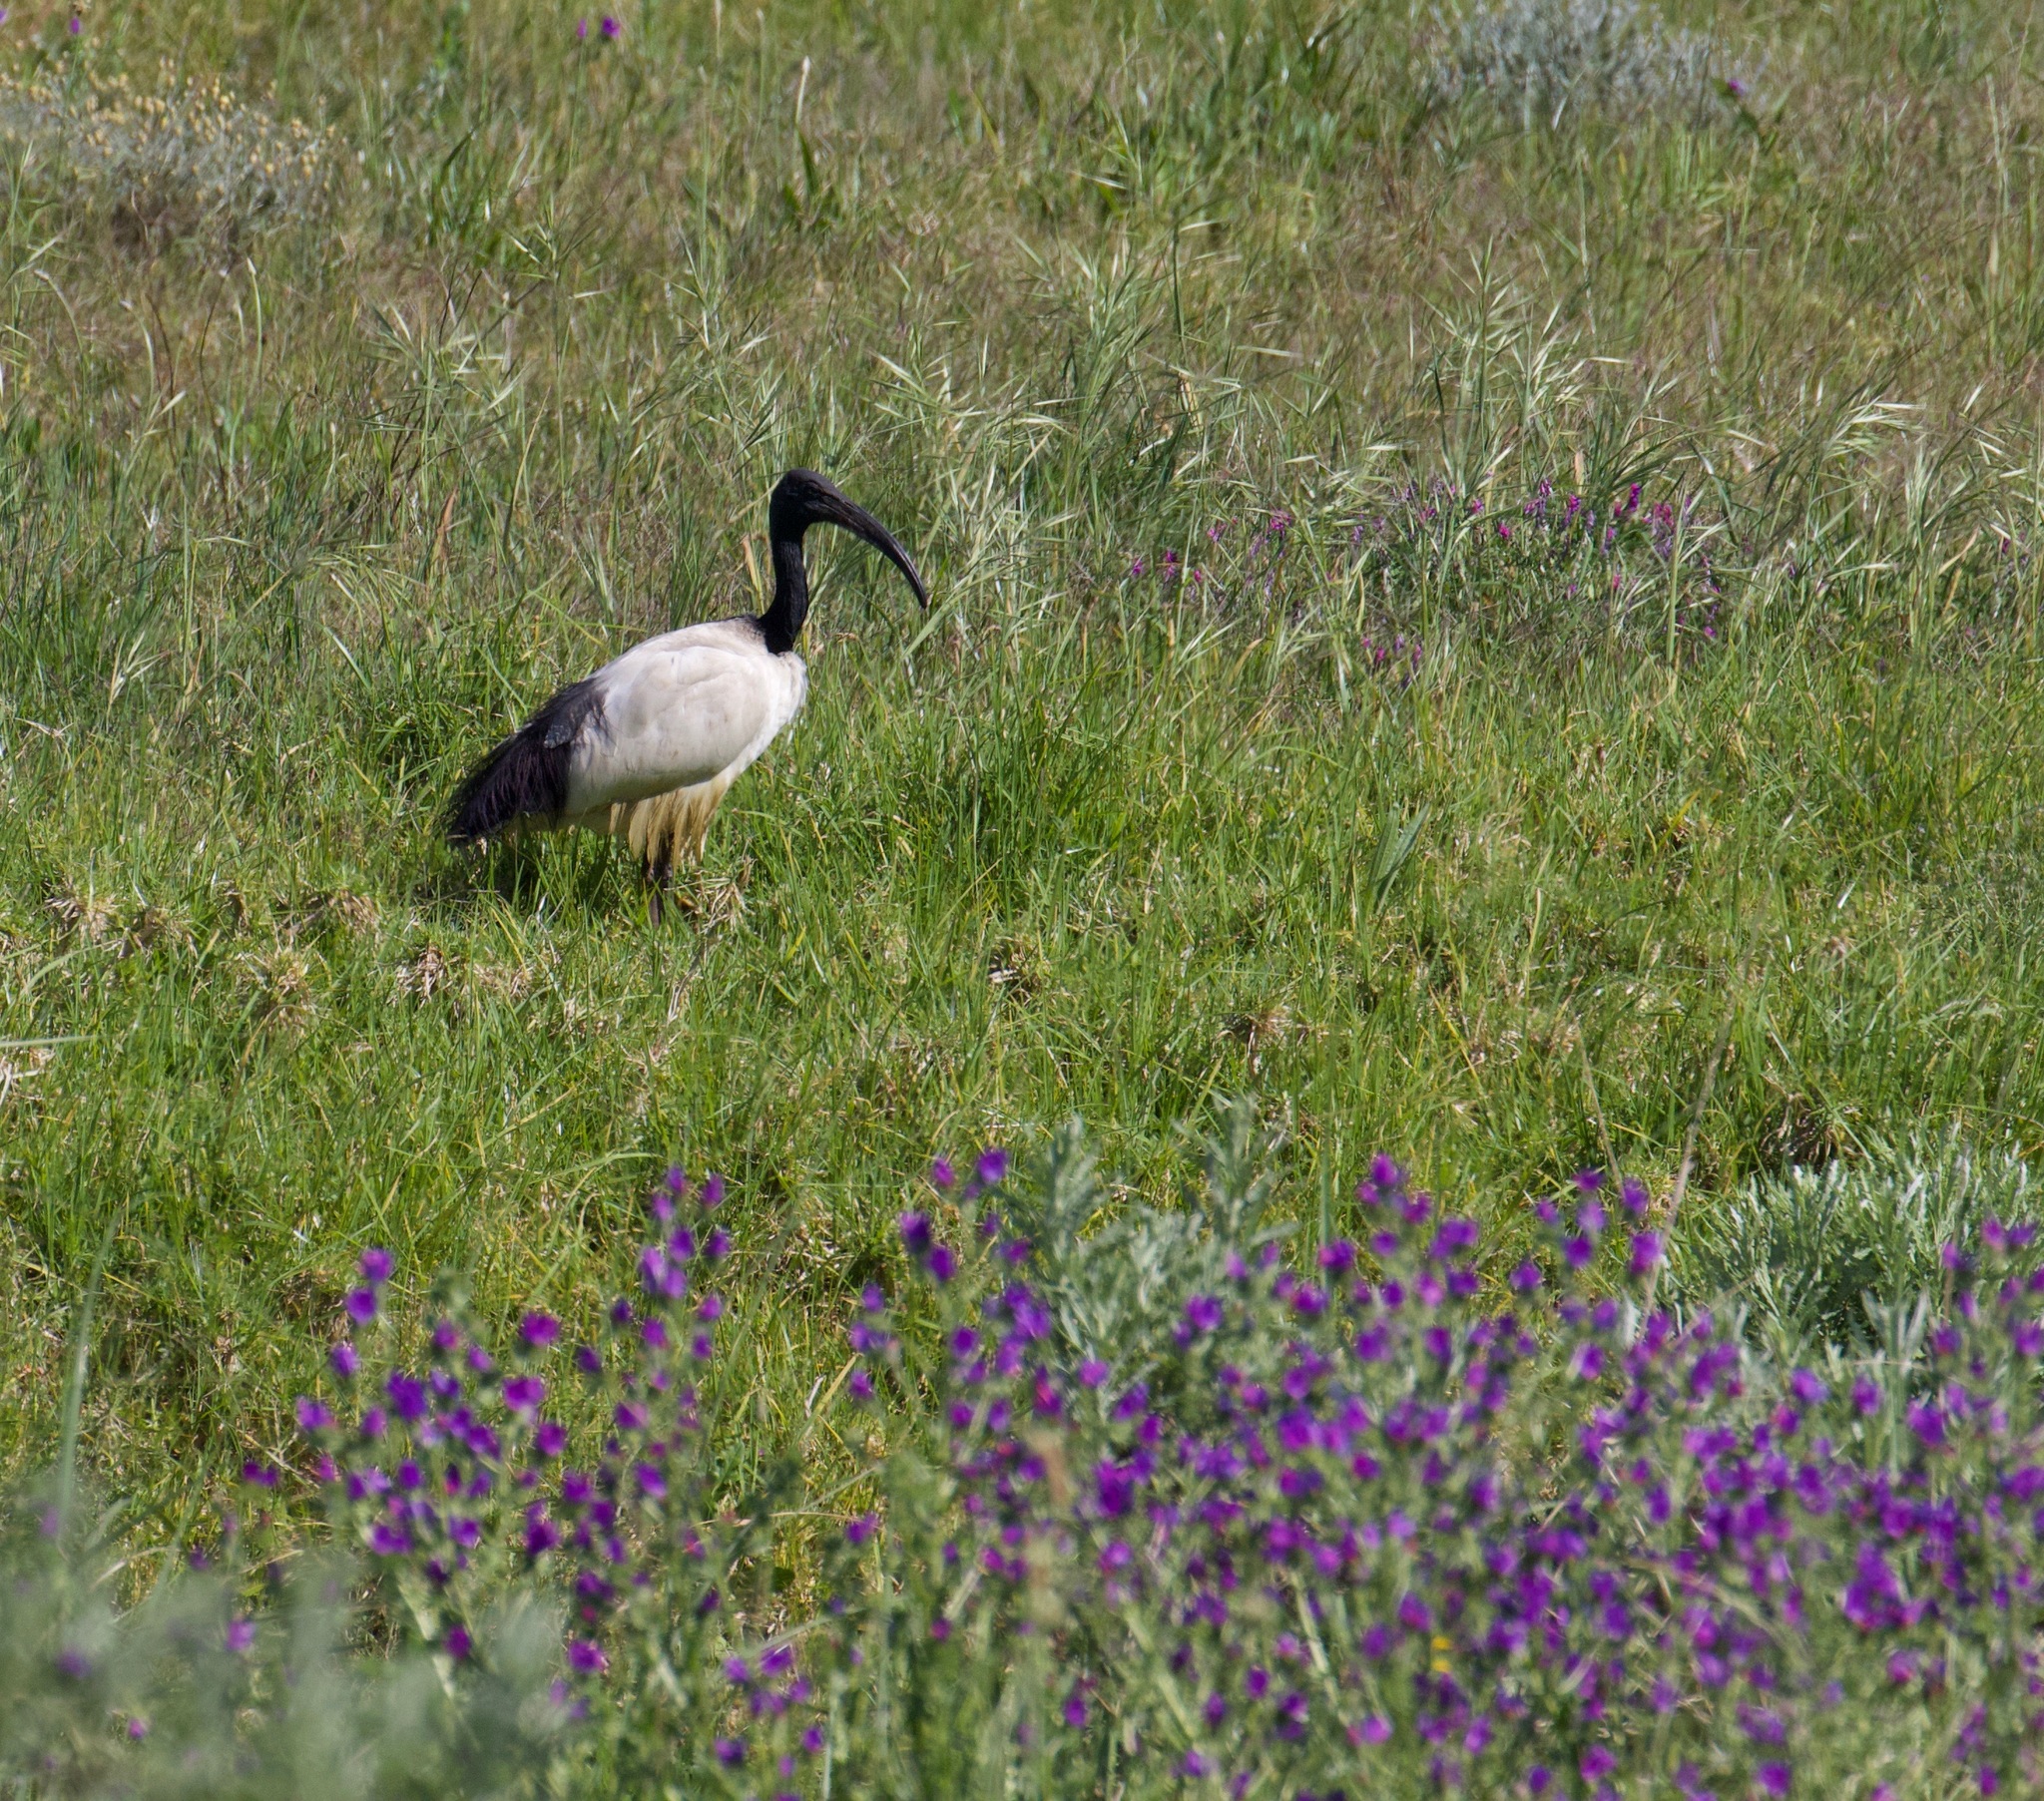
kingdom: Animalia
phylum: Chordata
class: Aves
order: Pelecaniformes
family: Threskiornithidae
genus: Threskiornis
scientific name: Threskiornis aethiopicus
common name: Sacred ibis
